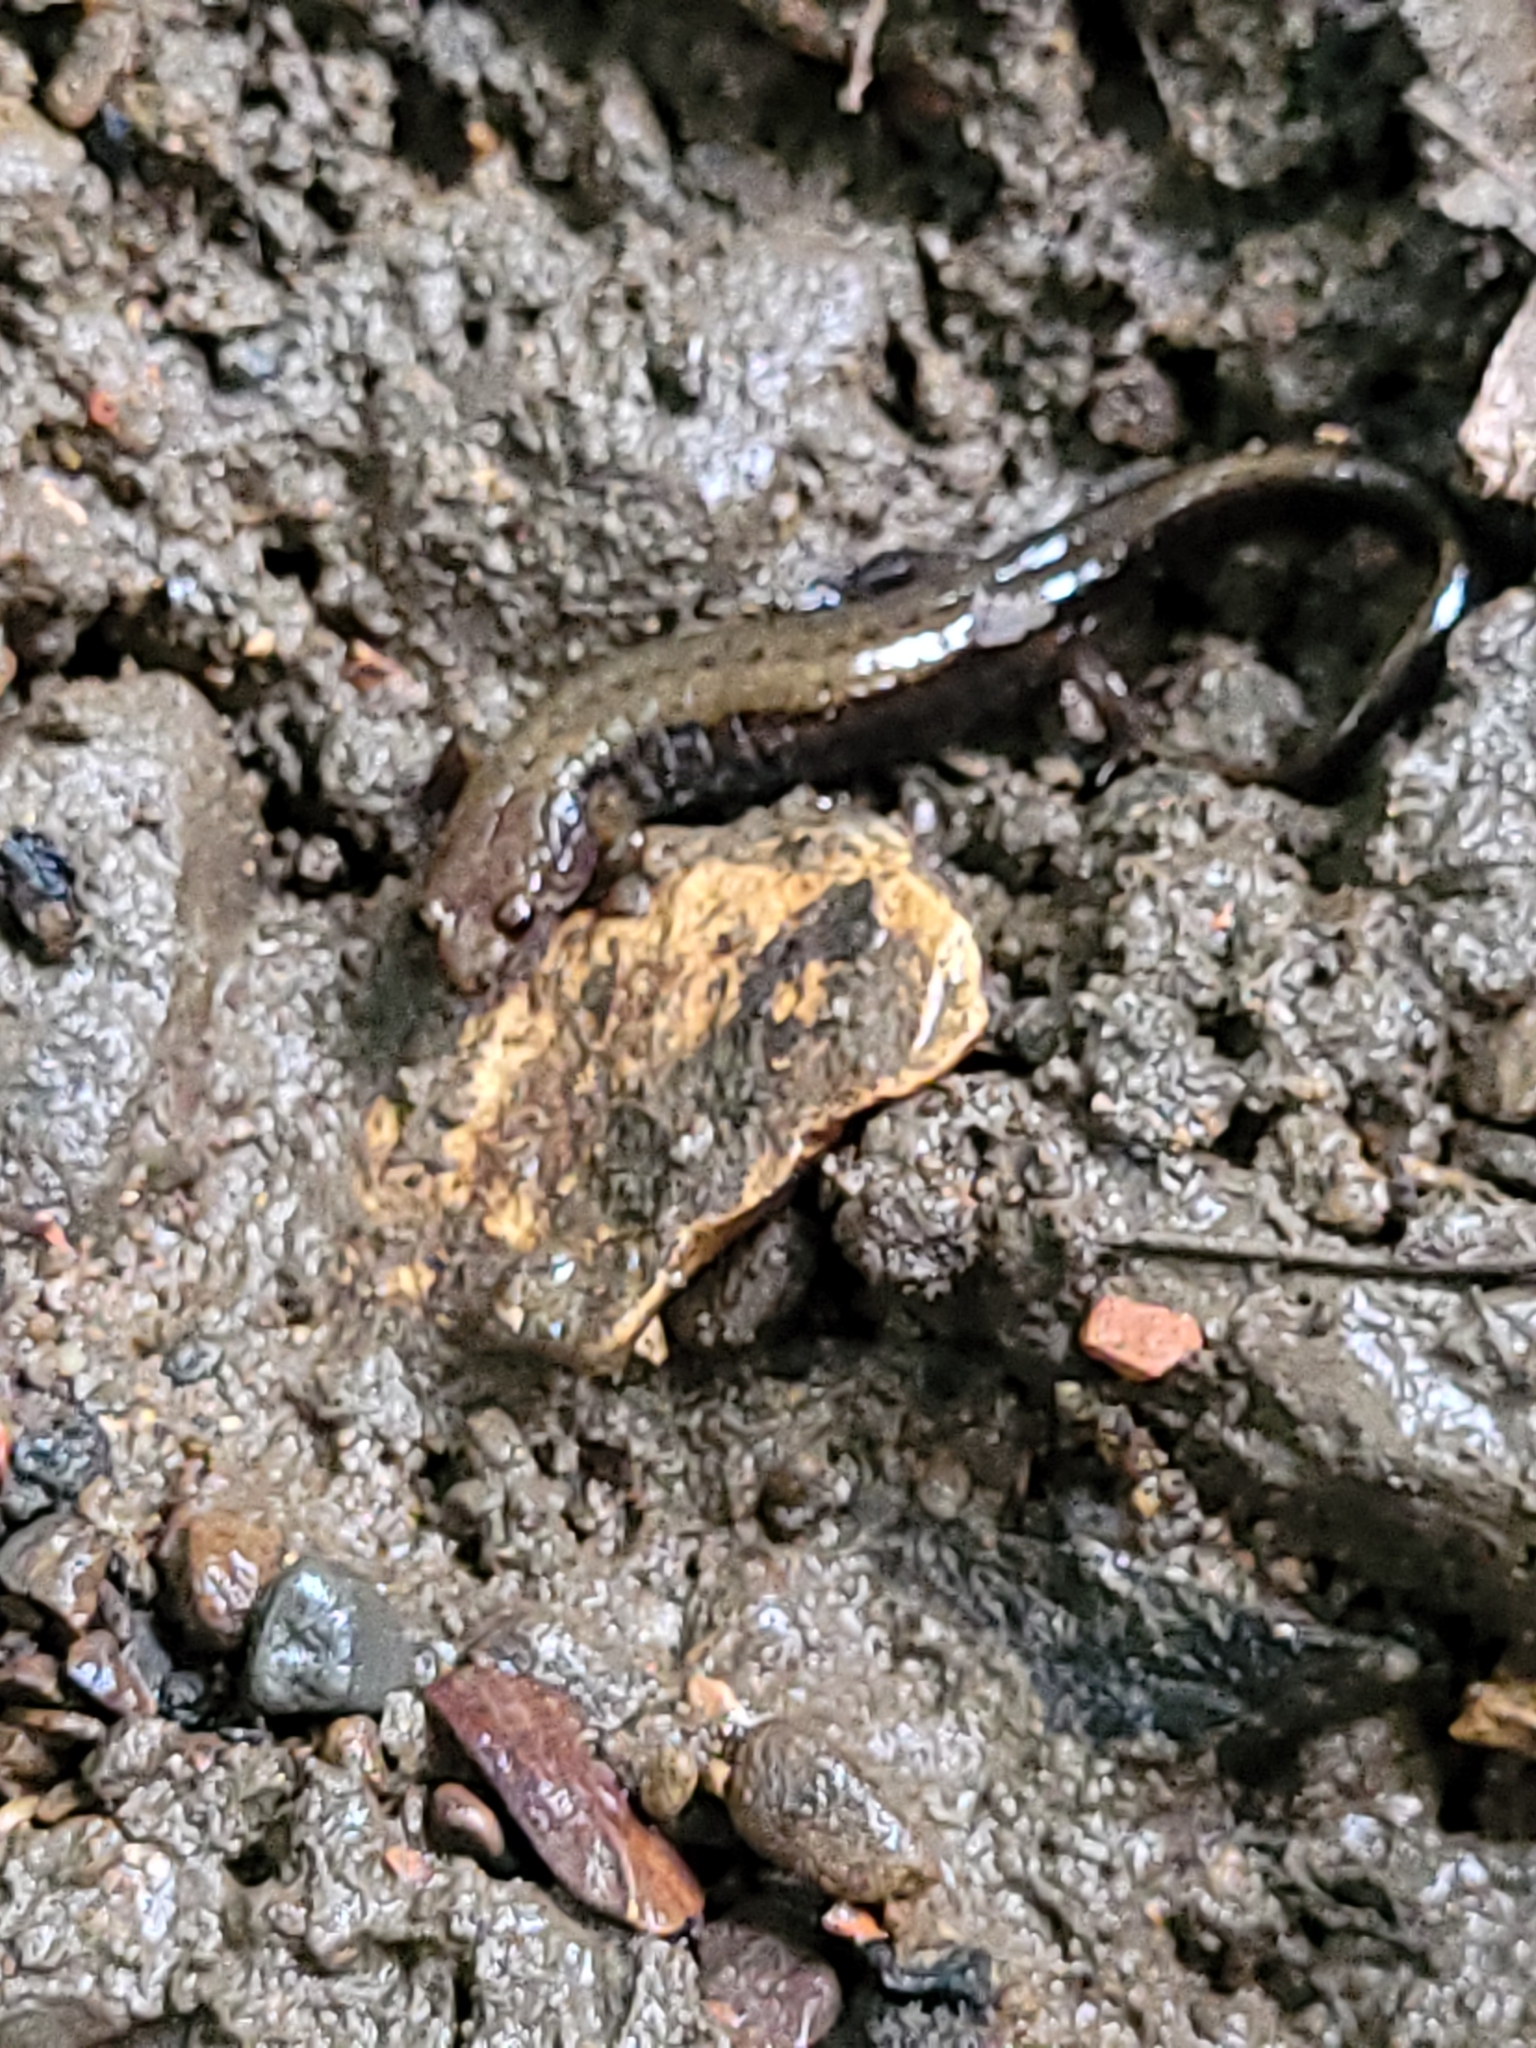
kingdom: Animalia
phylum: Chordata
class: Amphibia
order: Caudata
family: Plethodontidae
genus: Desmognathus
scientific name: Desmognathus ochrophaeus
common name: Allegheny mountain dusky salamander
